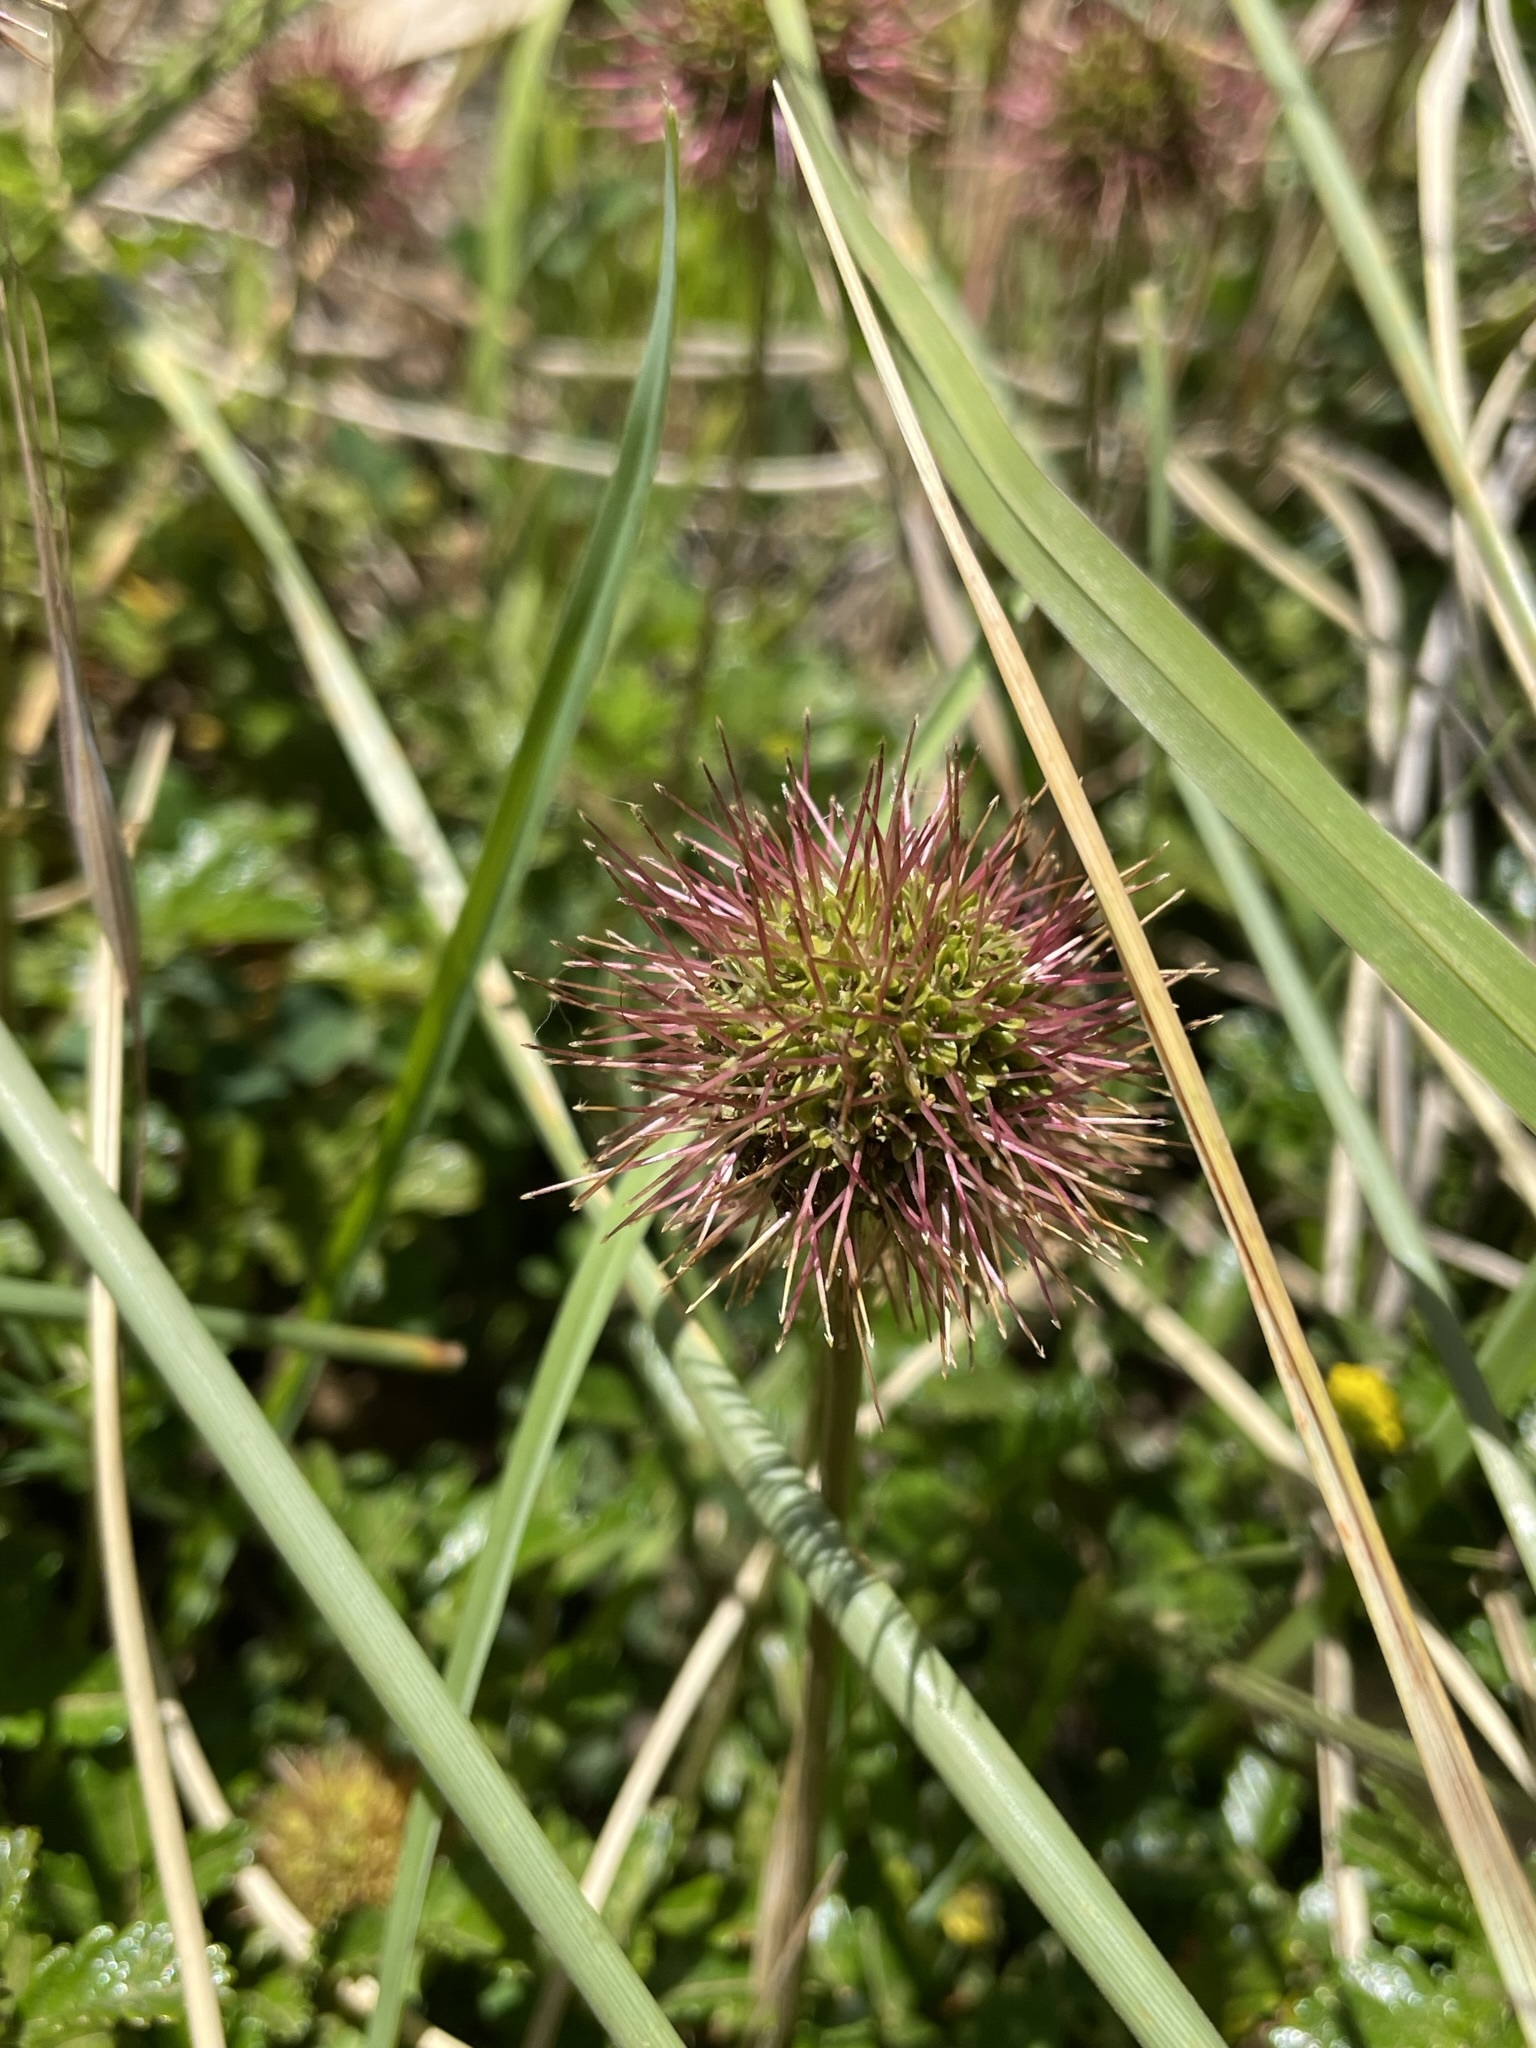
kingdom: Plantae
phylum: Tracheophyta
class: Magnoliopsida
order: Rosales
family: Rosaceae
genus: Acaena
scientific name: Acaena pallida
